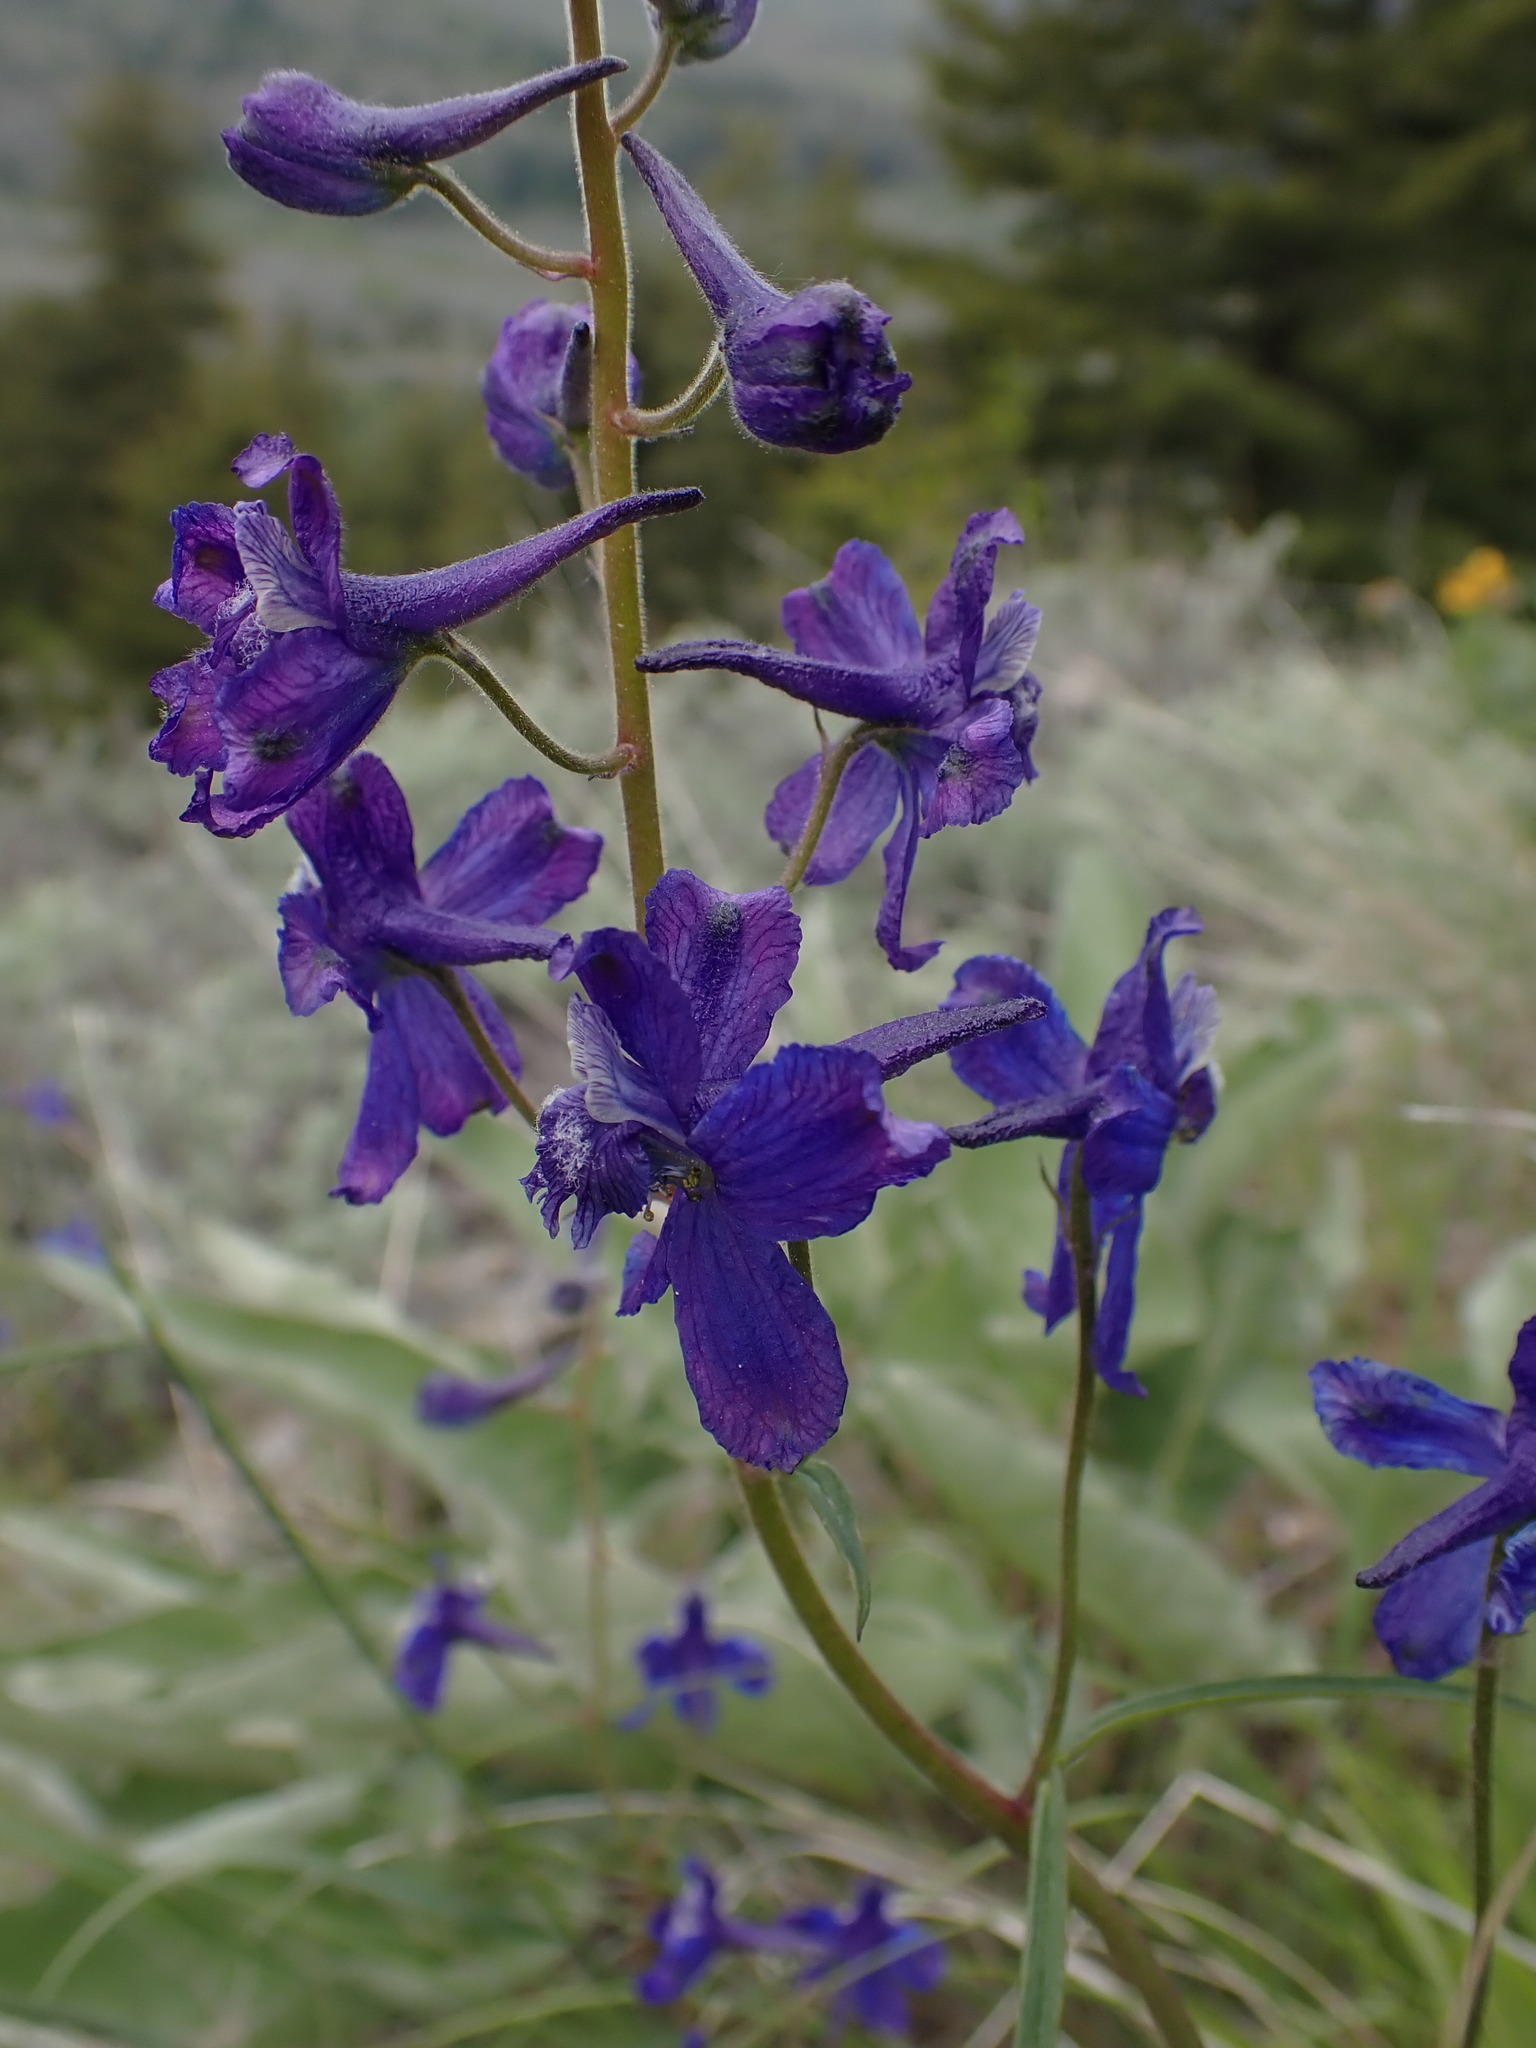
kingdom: Plantae
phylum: Tracheophyta
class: Magnoliopsida
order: Ranunculales
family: Ranunculaceae
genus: Delphinium
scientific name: Delphinium nuttallianum
